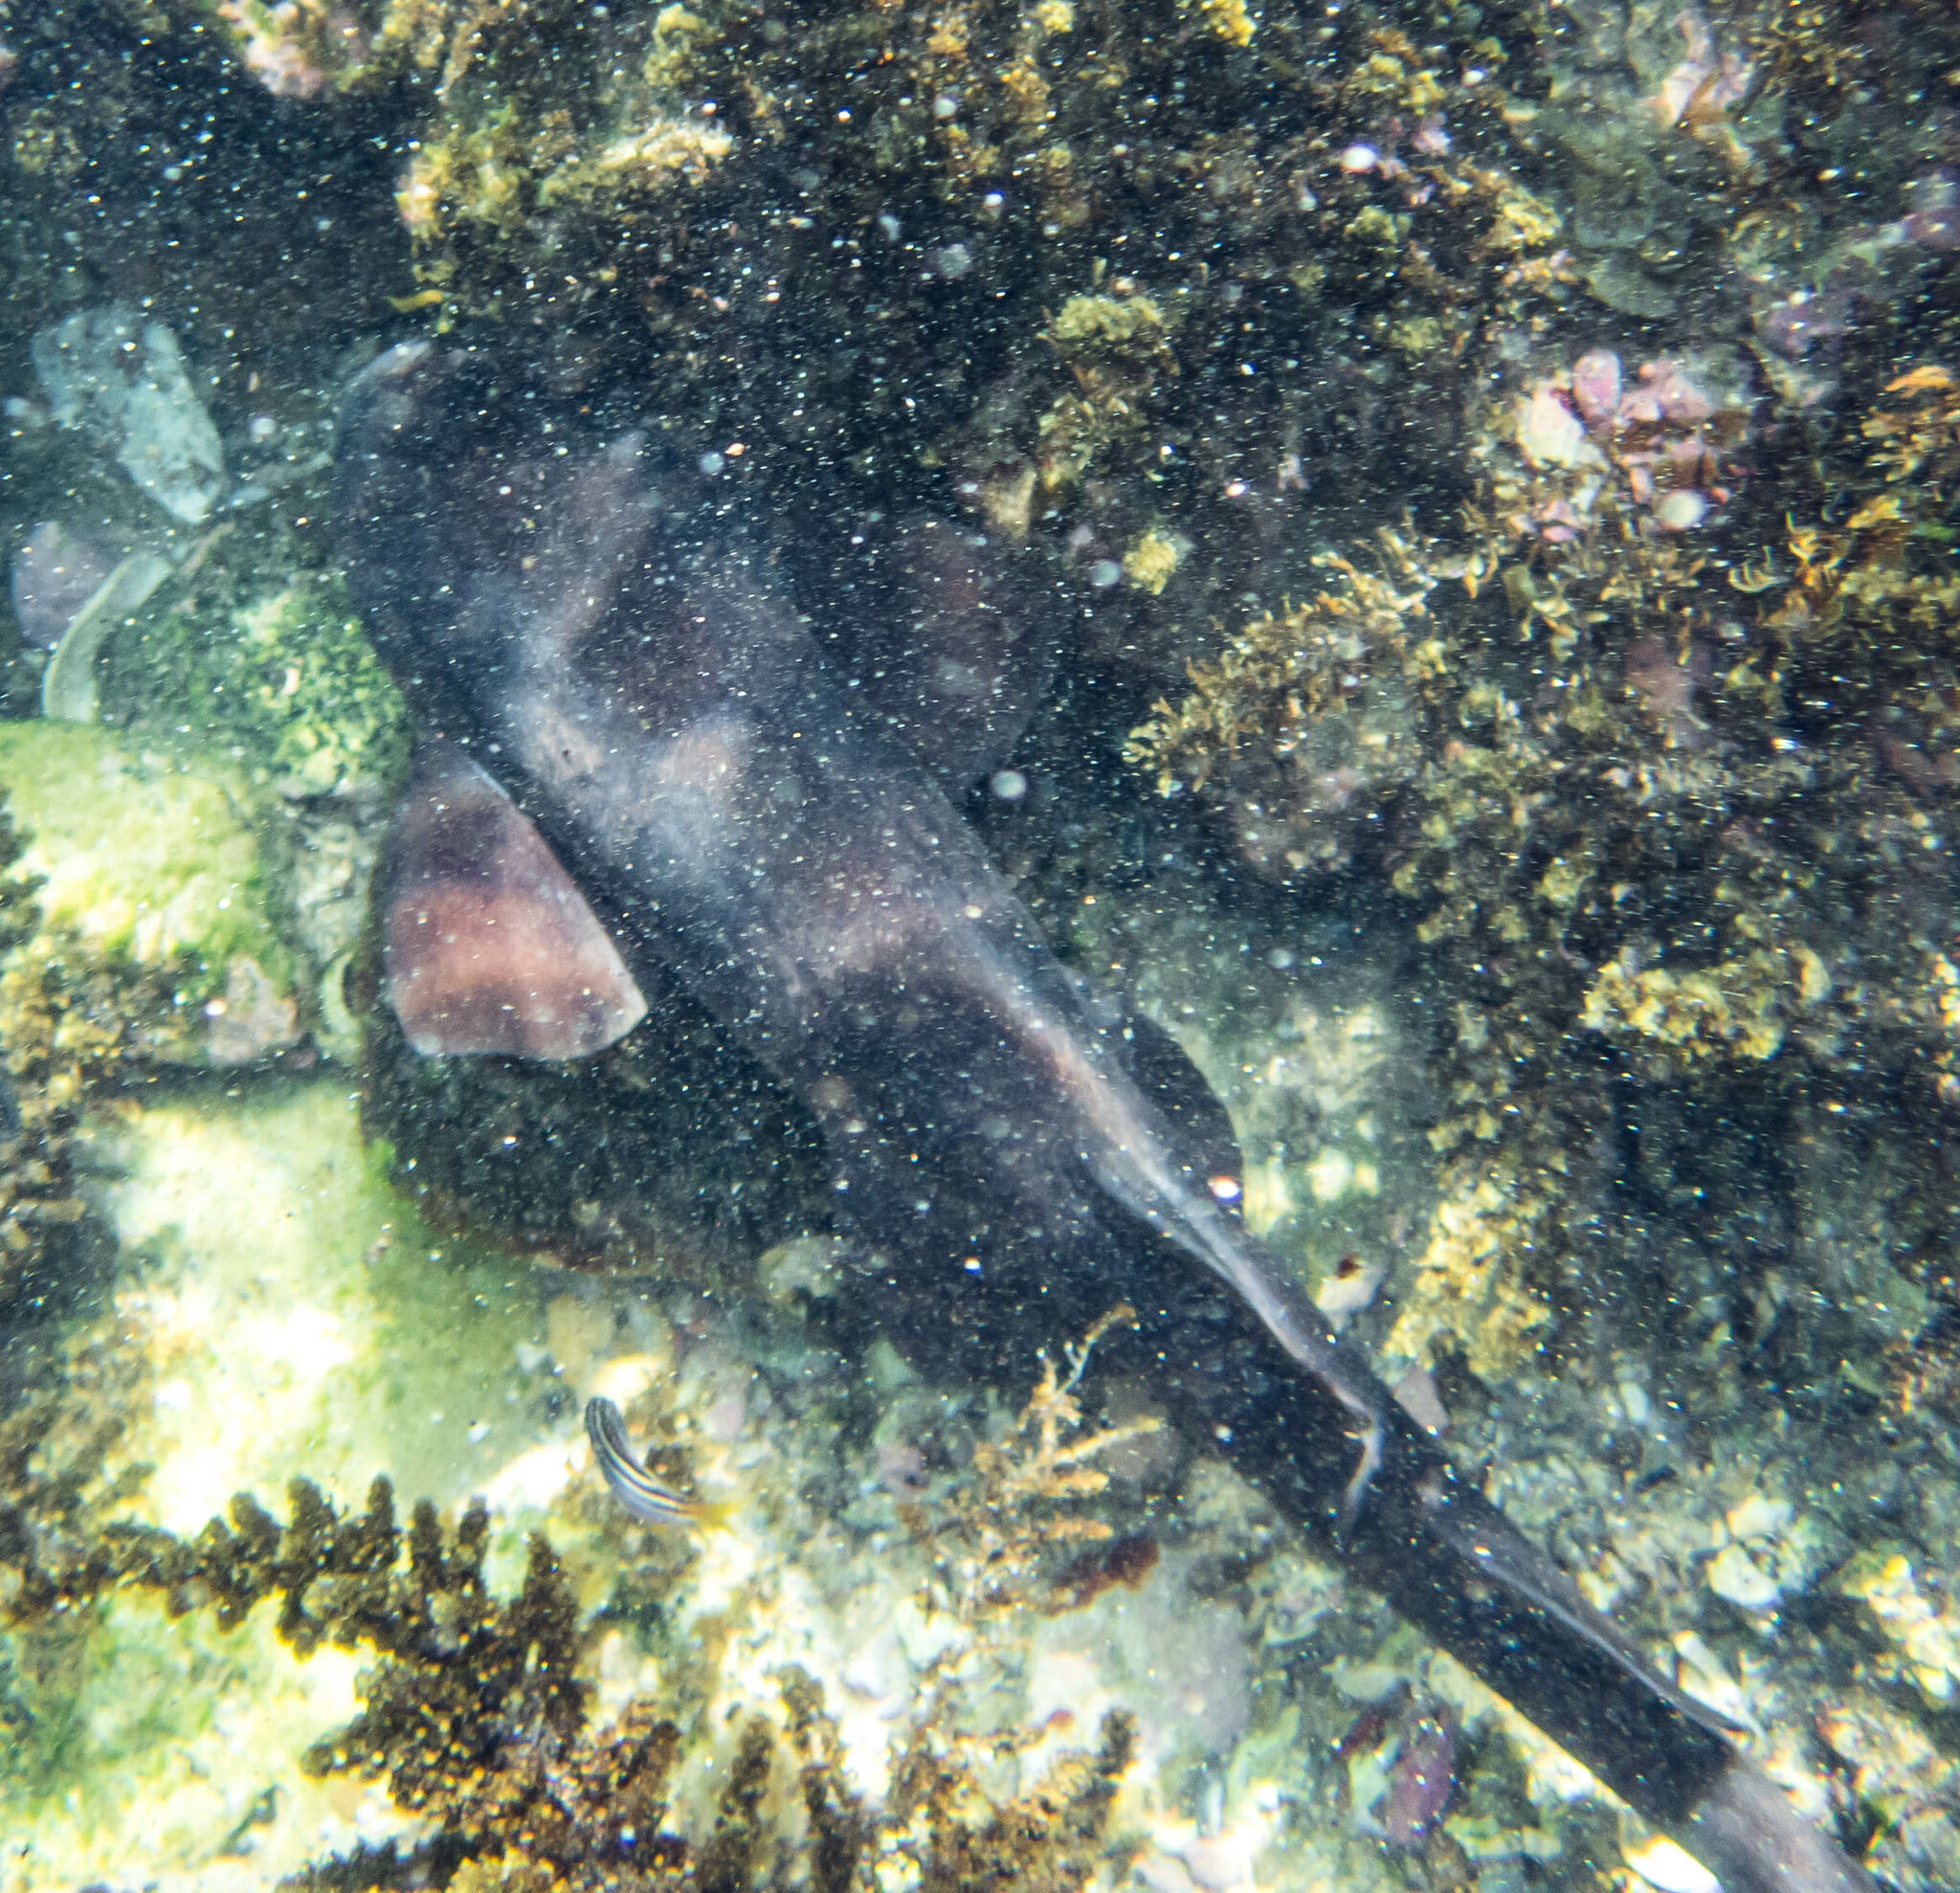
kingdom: Animalia
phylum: Chordata
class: Elasmobranchii
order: Orectolobiformes
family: Brachaeluridae
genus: Brachaelurus
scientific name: Brachaelurus waddi
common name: Blind shark
